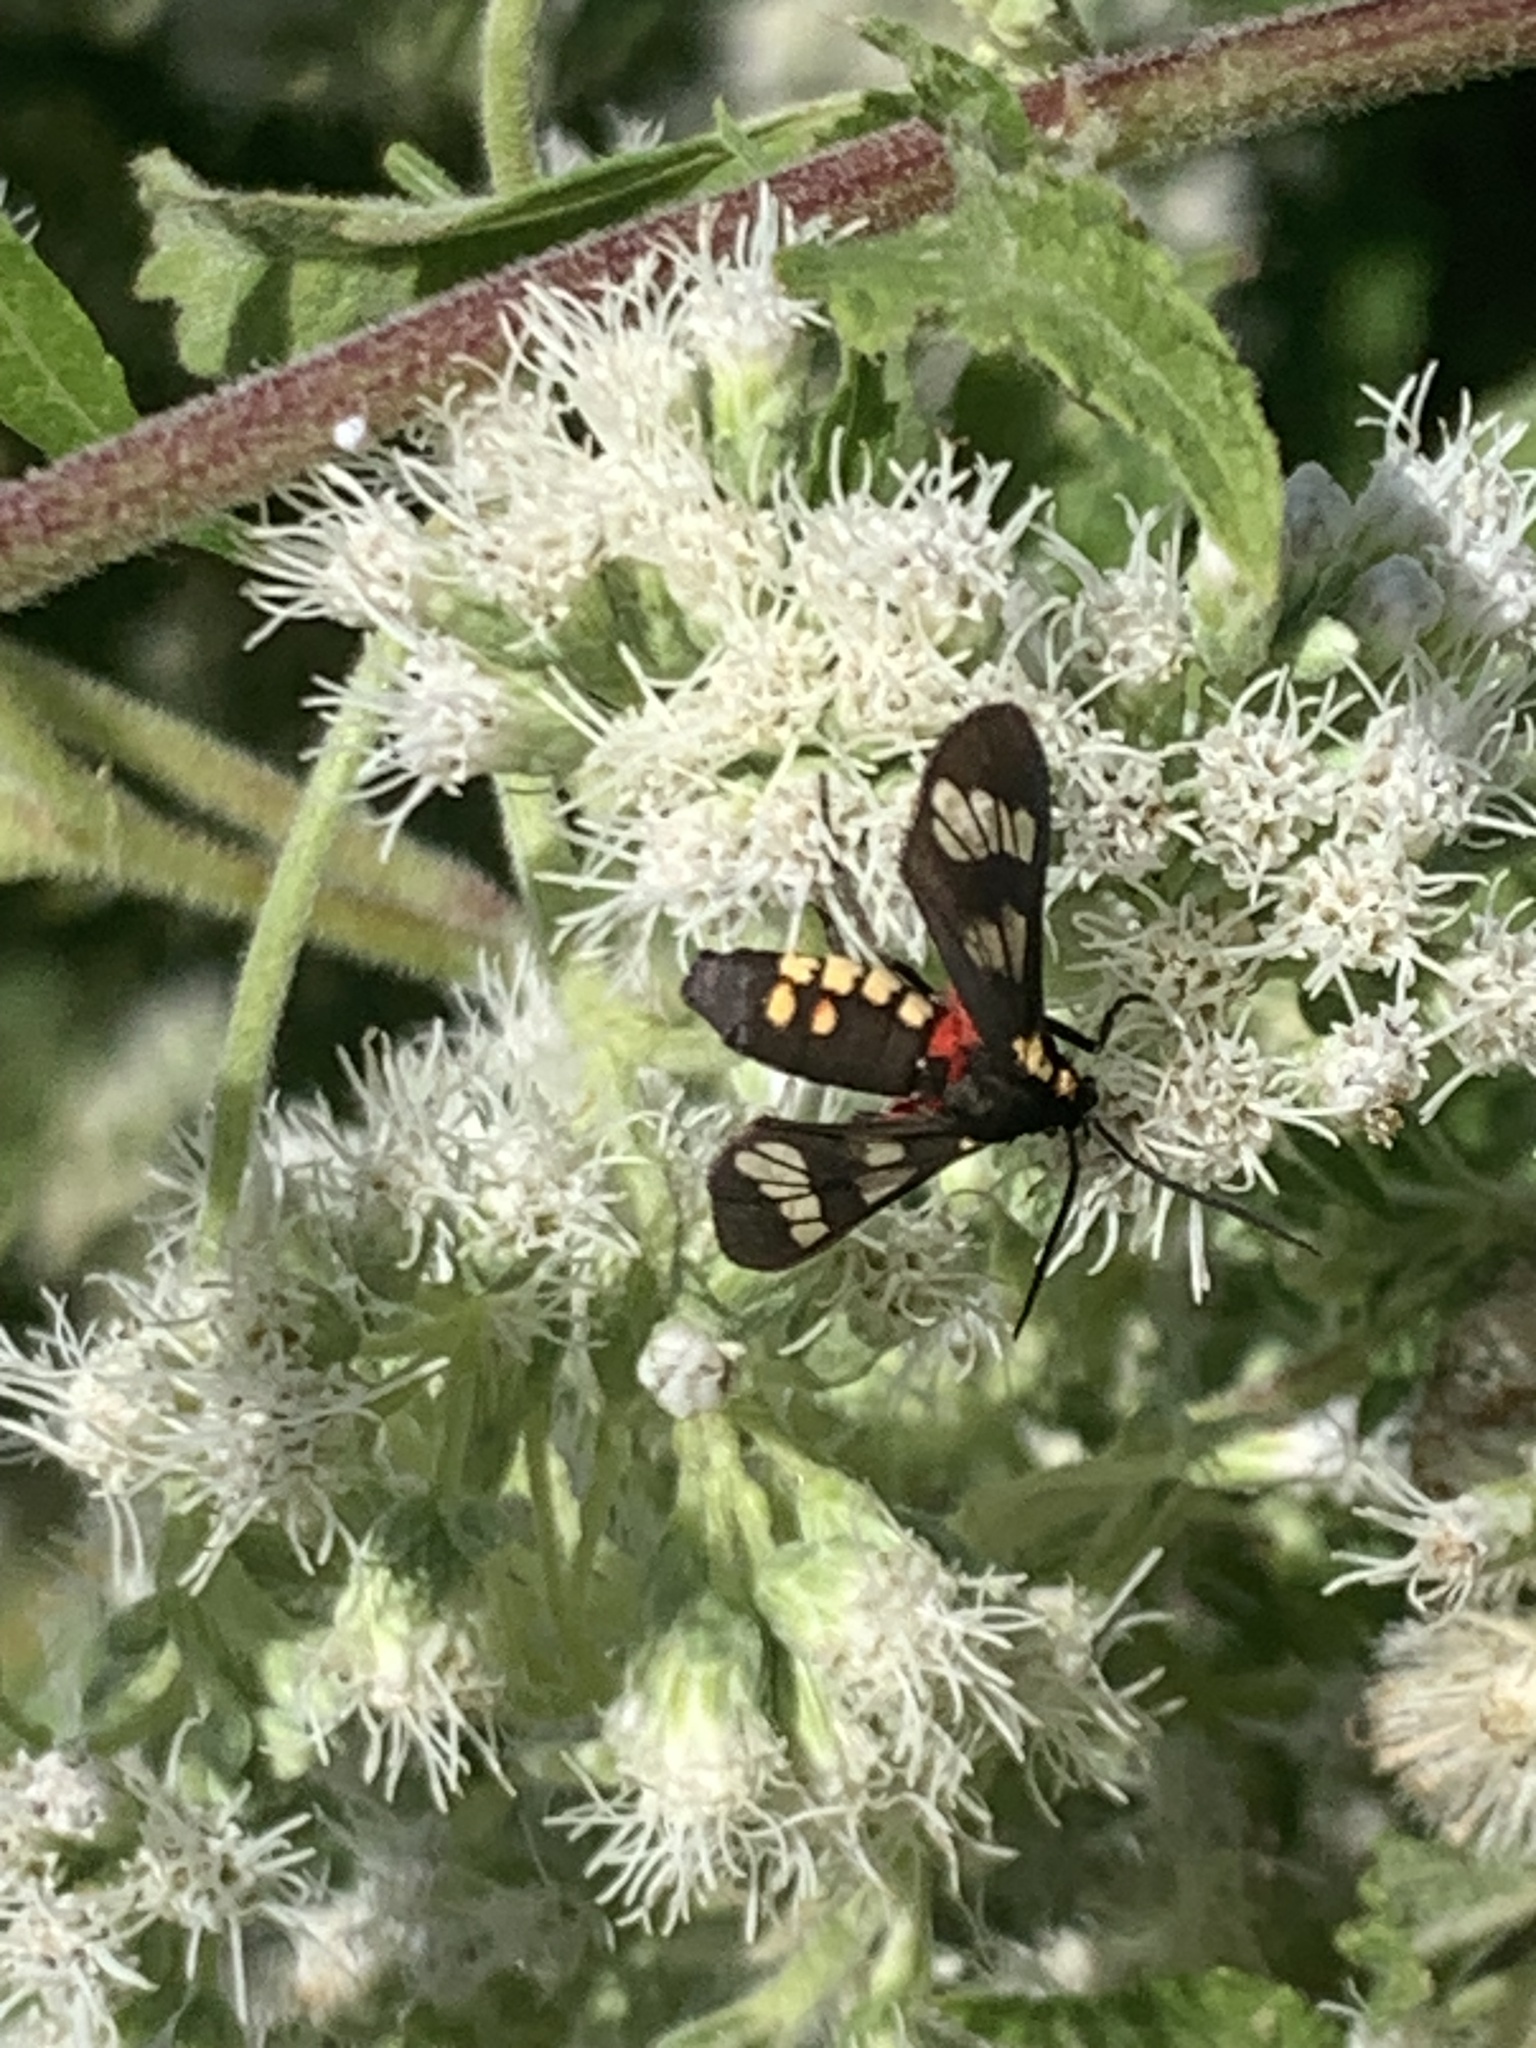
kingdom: Animalia
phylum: Arthropoda
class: Insecta
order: Lepidoptera
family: Erebidae
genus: Eurata
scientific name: Eurata hermione
